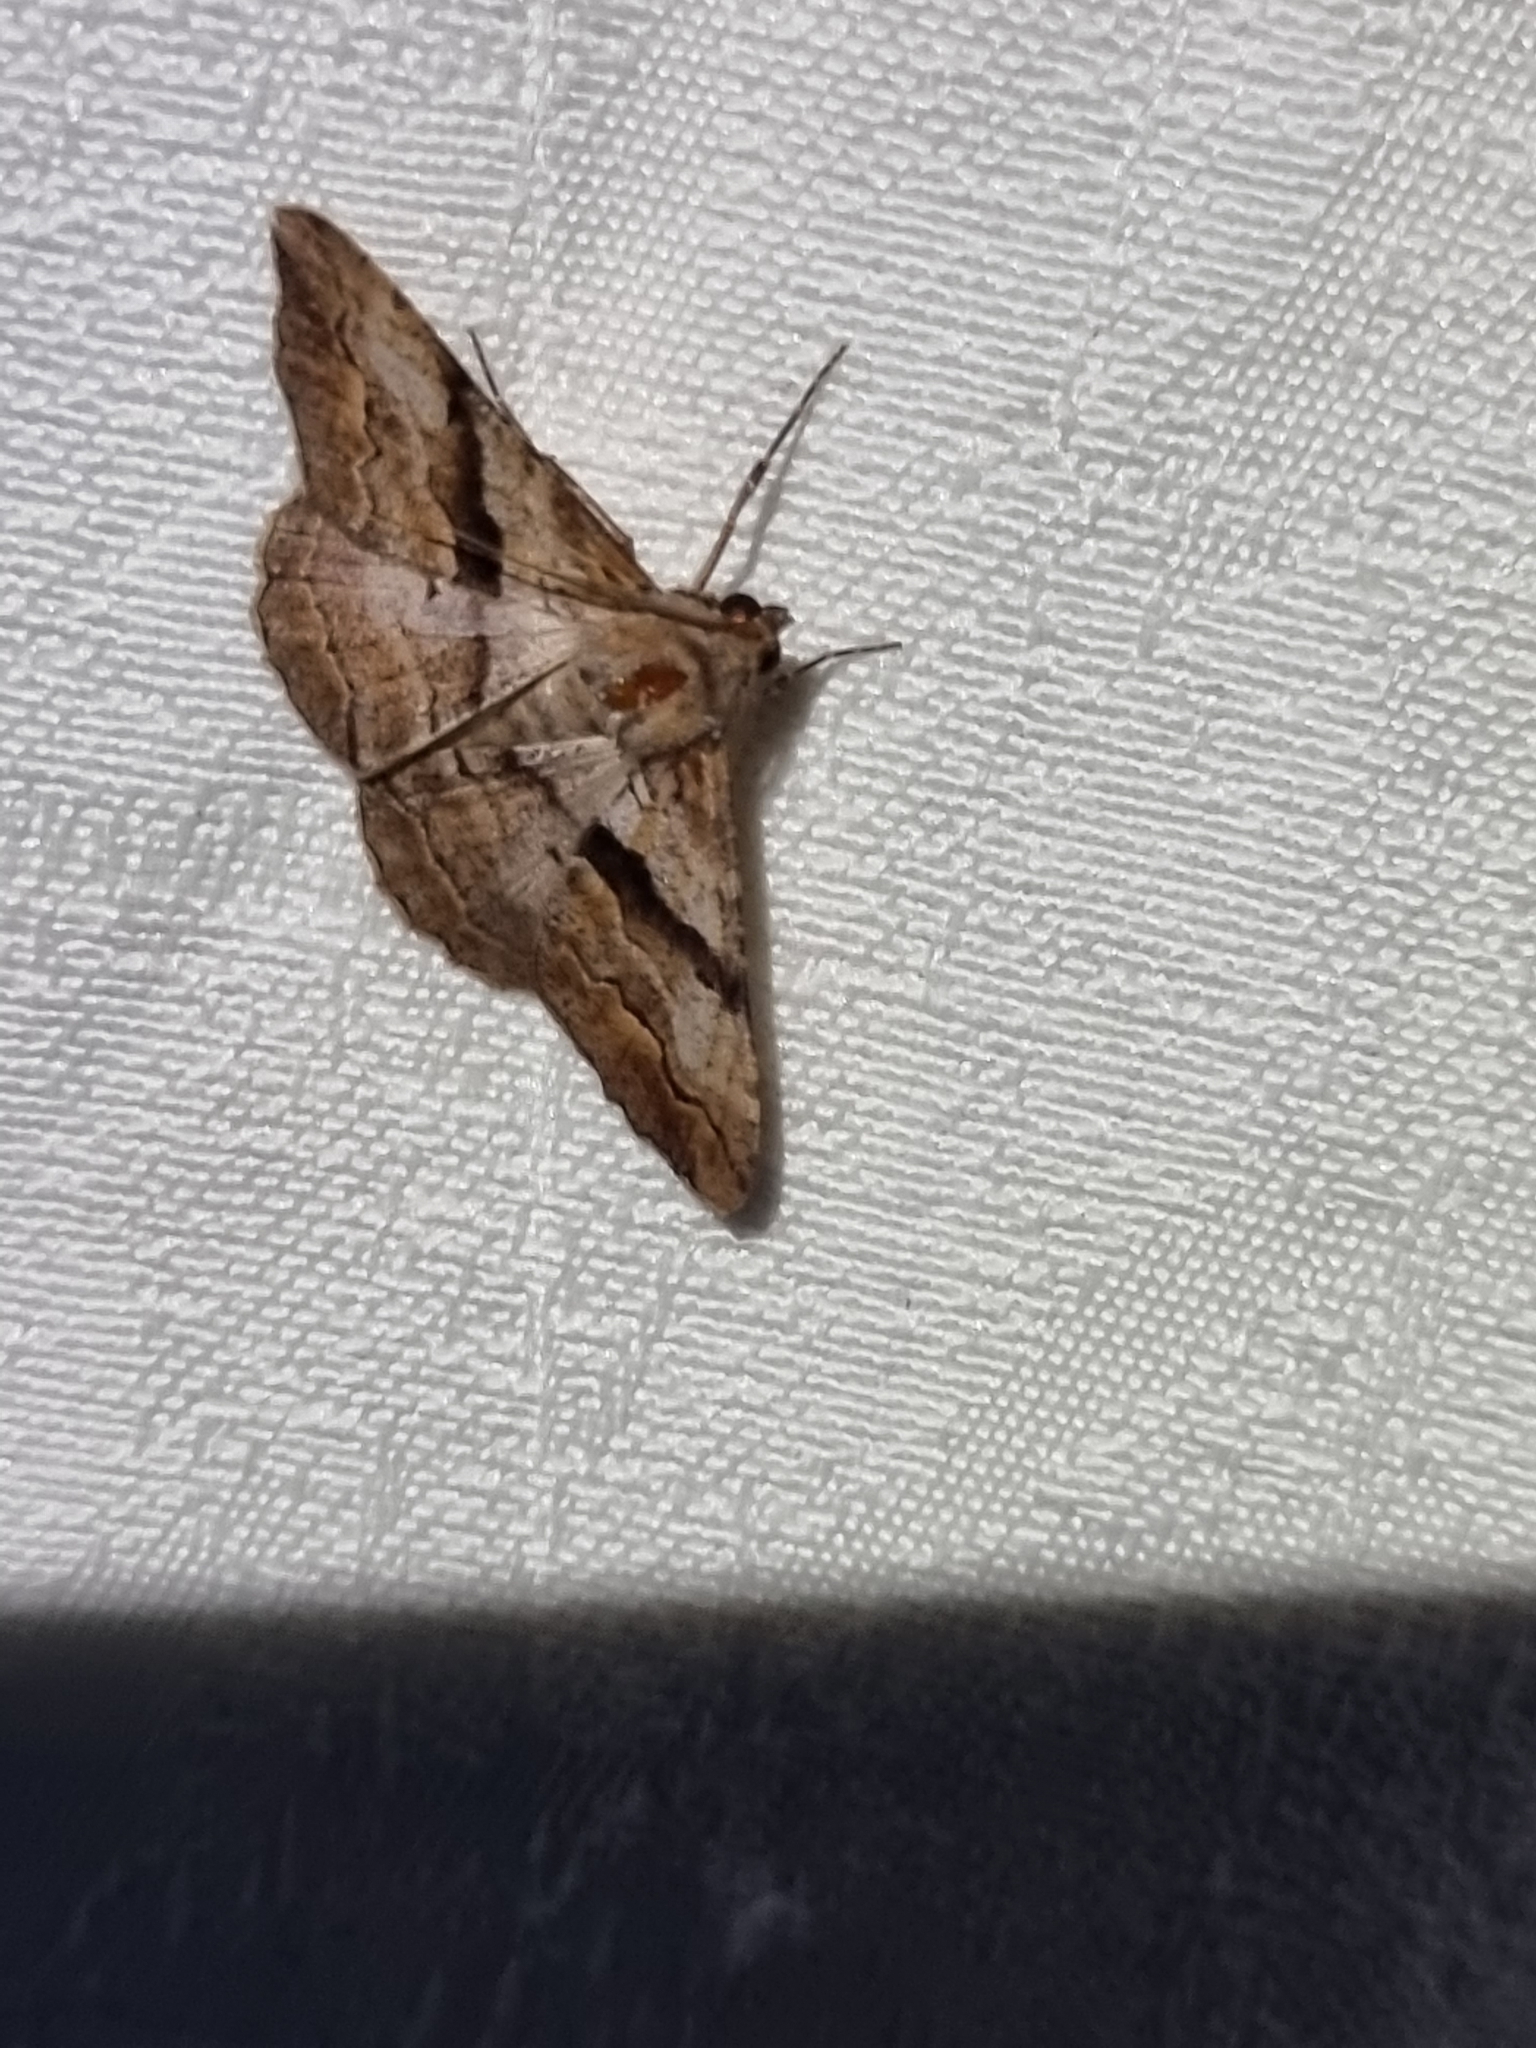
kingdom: Animalia
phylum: Arthropoda
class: Insecta
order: Lepidoptera
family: Geometridae
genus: Gastrinodes
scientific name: Gastrinodes bitaeniaria
